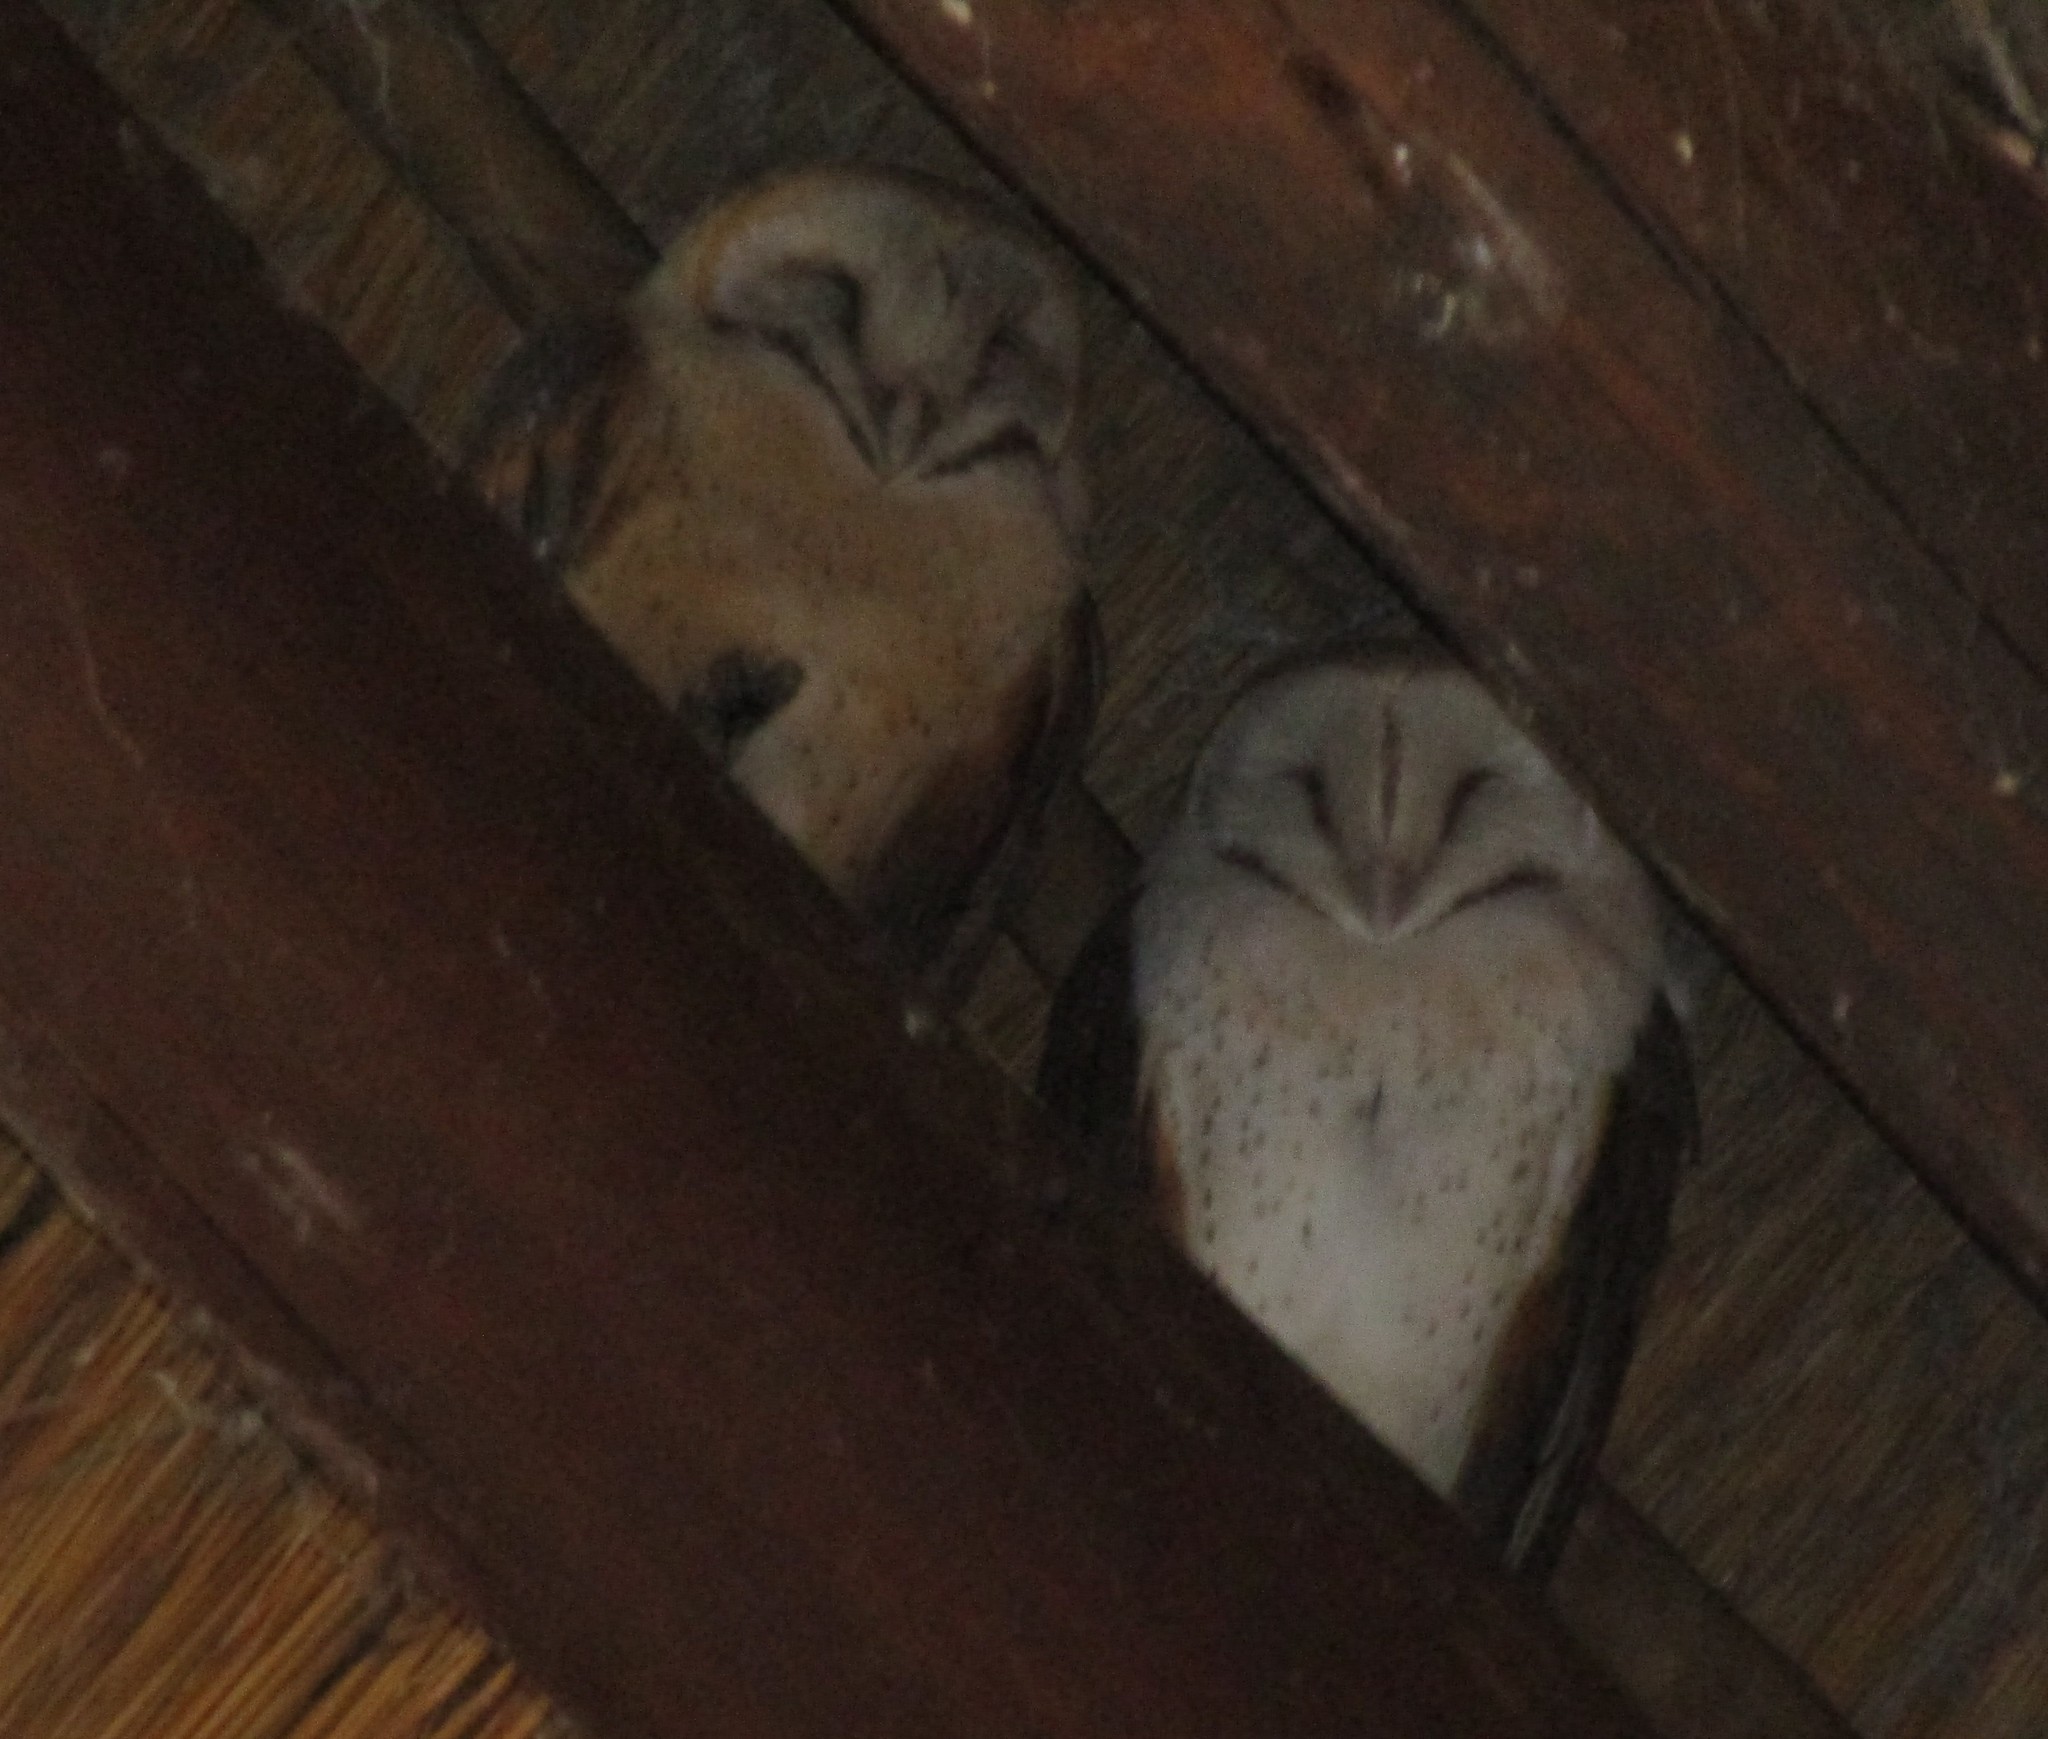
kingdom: Animalia
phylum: Chordata
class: Aves
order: Strigiformes
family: Tytonidae
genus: Tyto
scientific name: Tyto alba
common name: Barn owl
